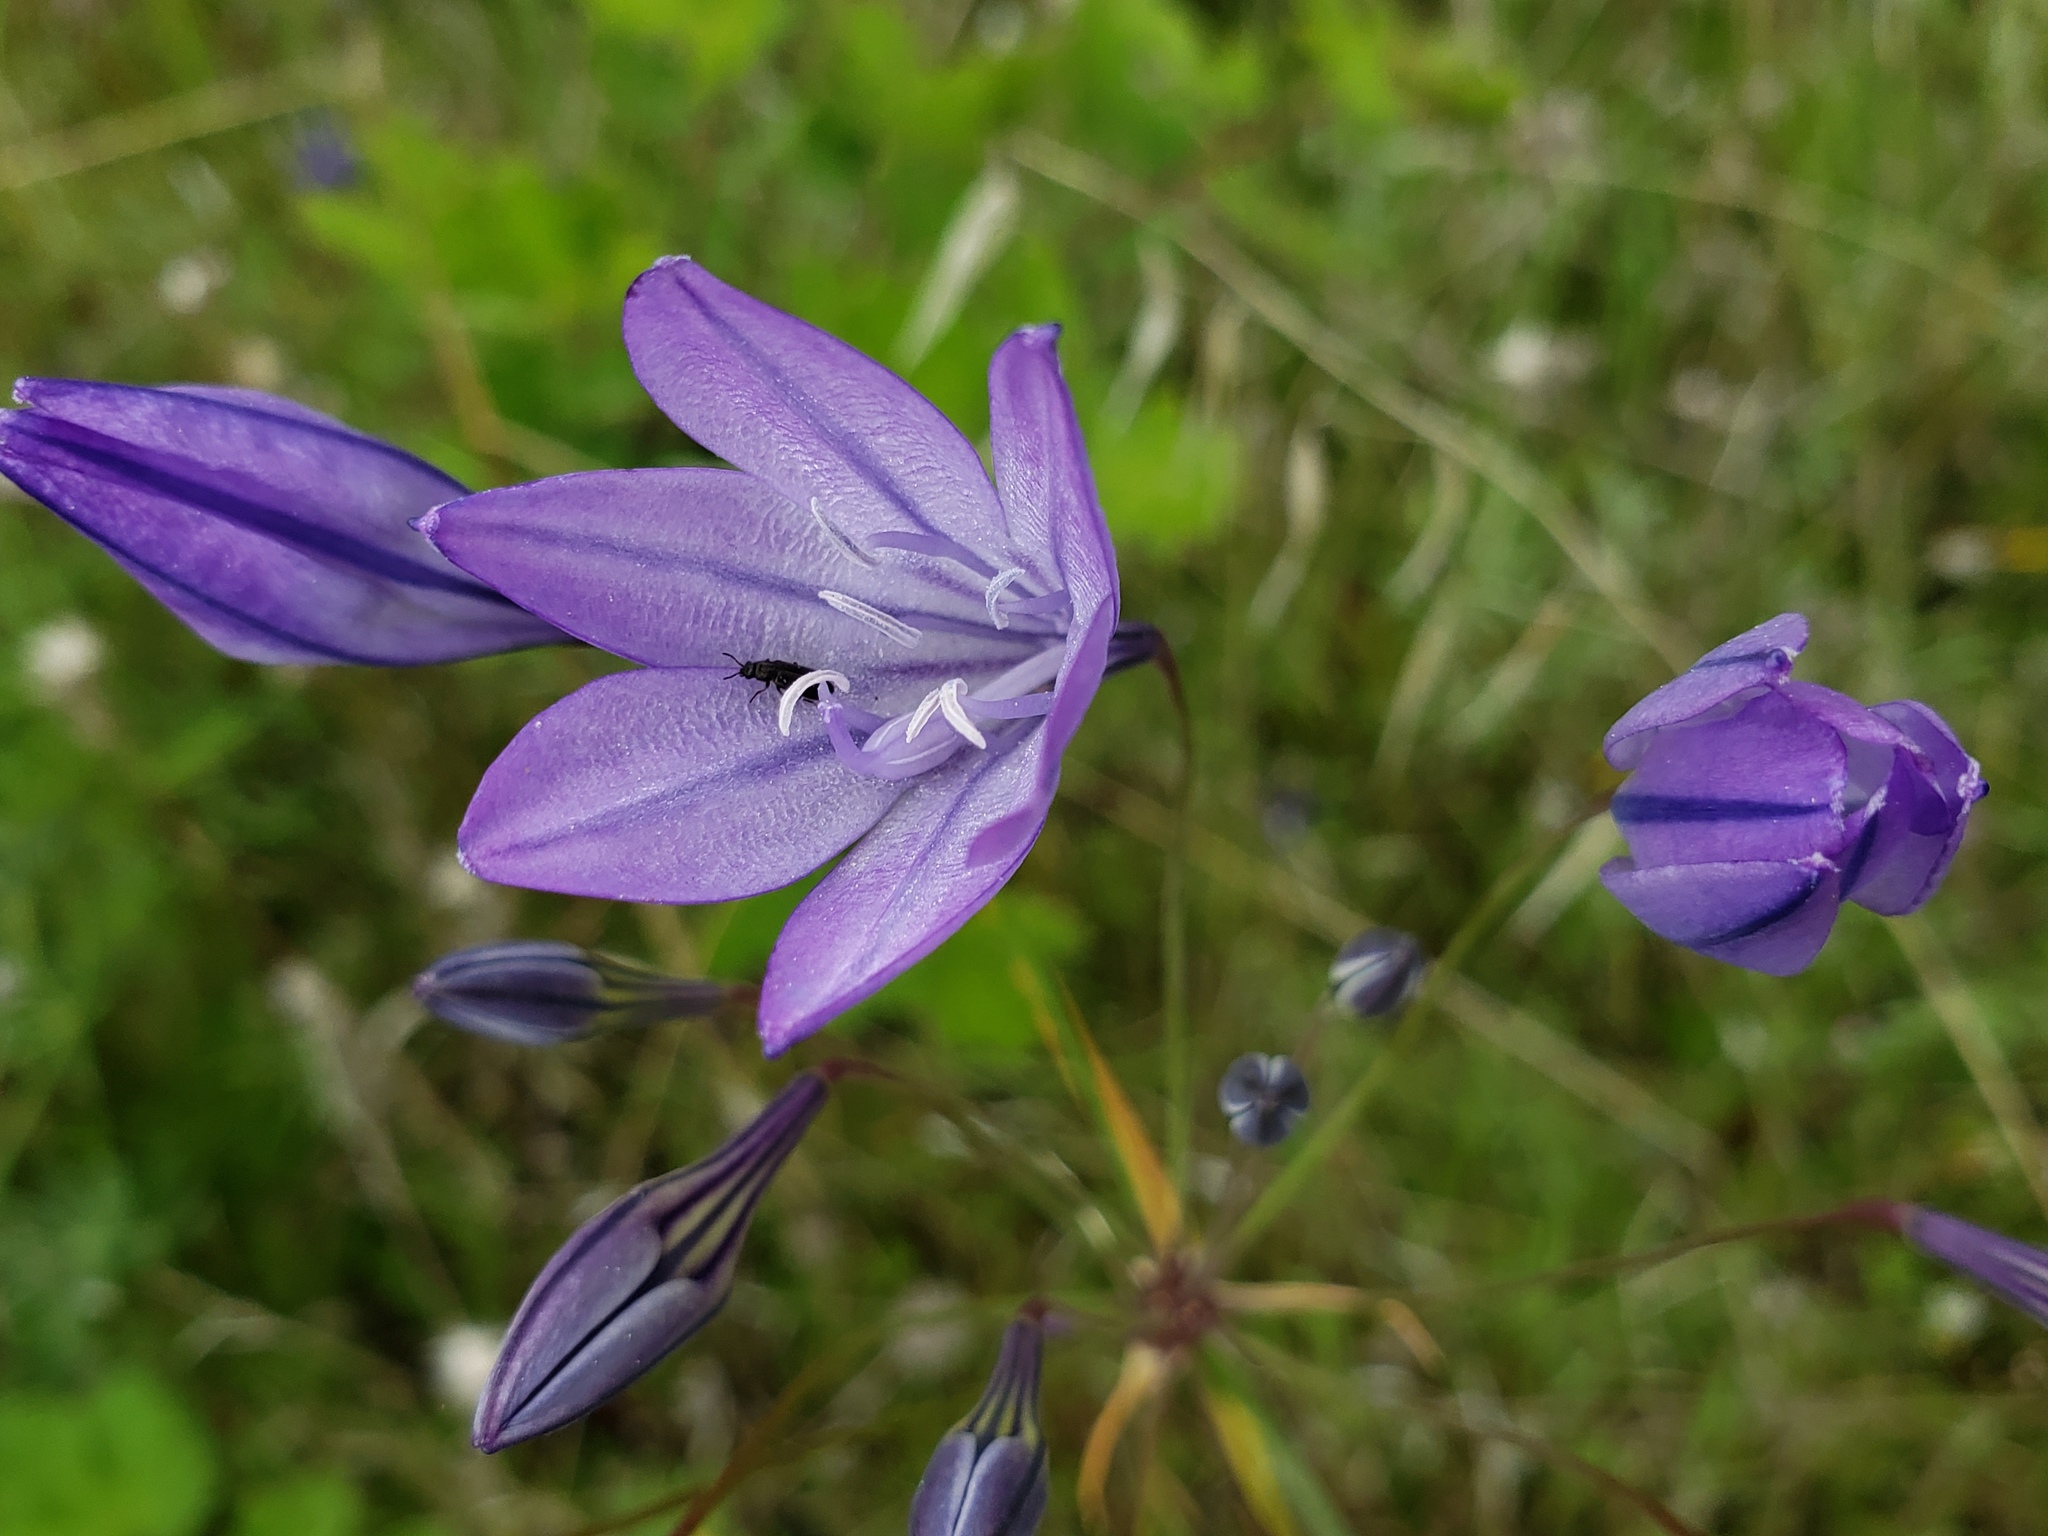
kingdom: Plantae
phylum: Tracheophyta
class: Liliopsida
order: Asparagales
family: Asparagaceae
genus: Triteleia
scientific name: Triteleia laxa
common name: Triplet-lily
